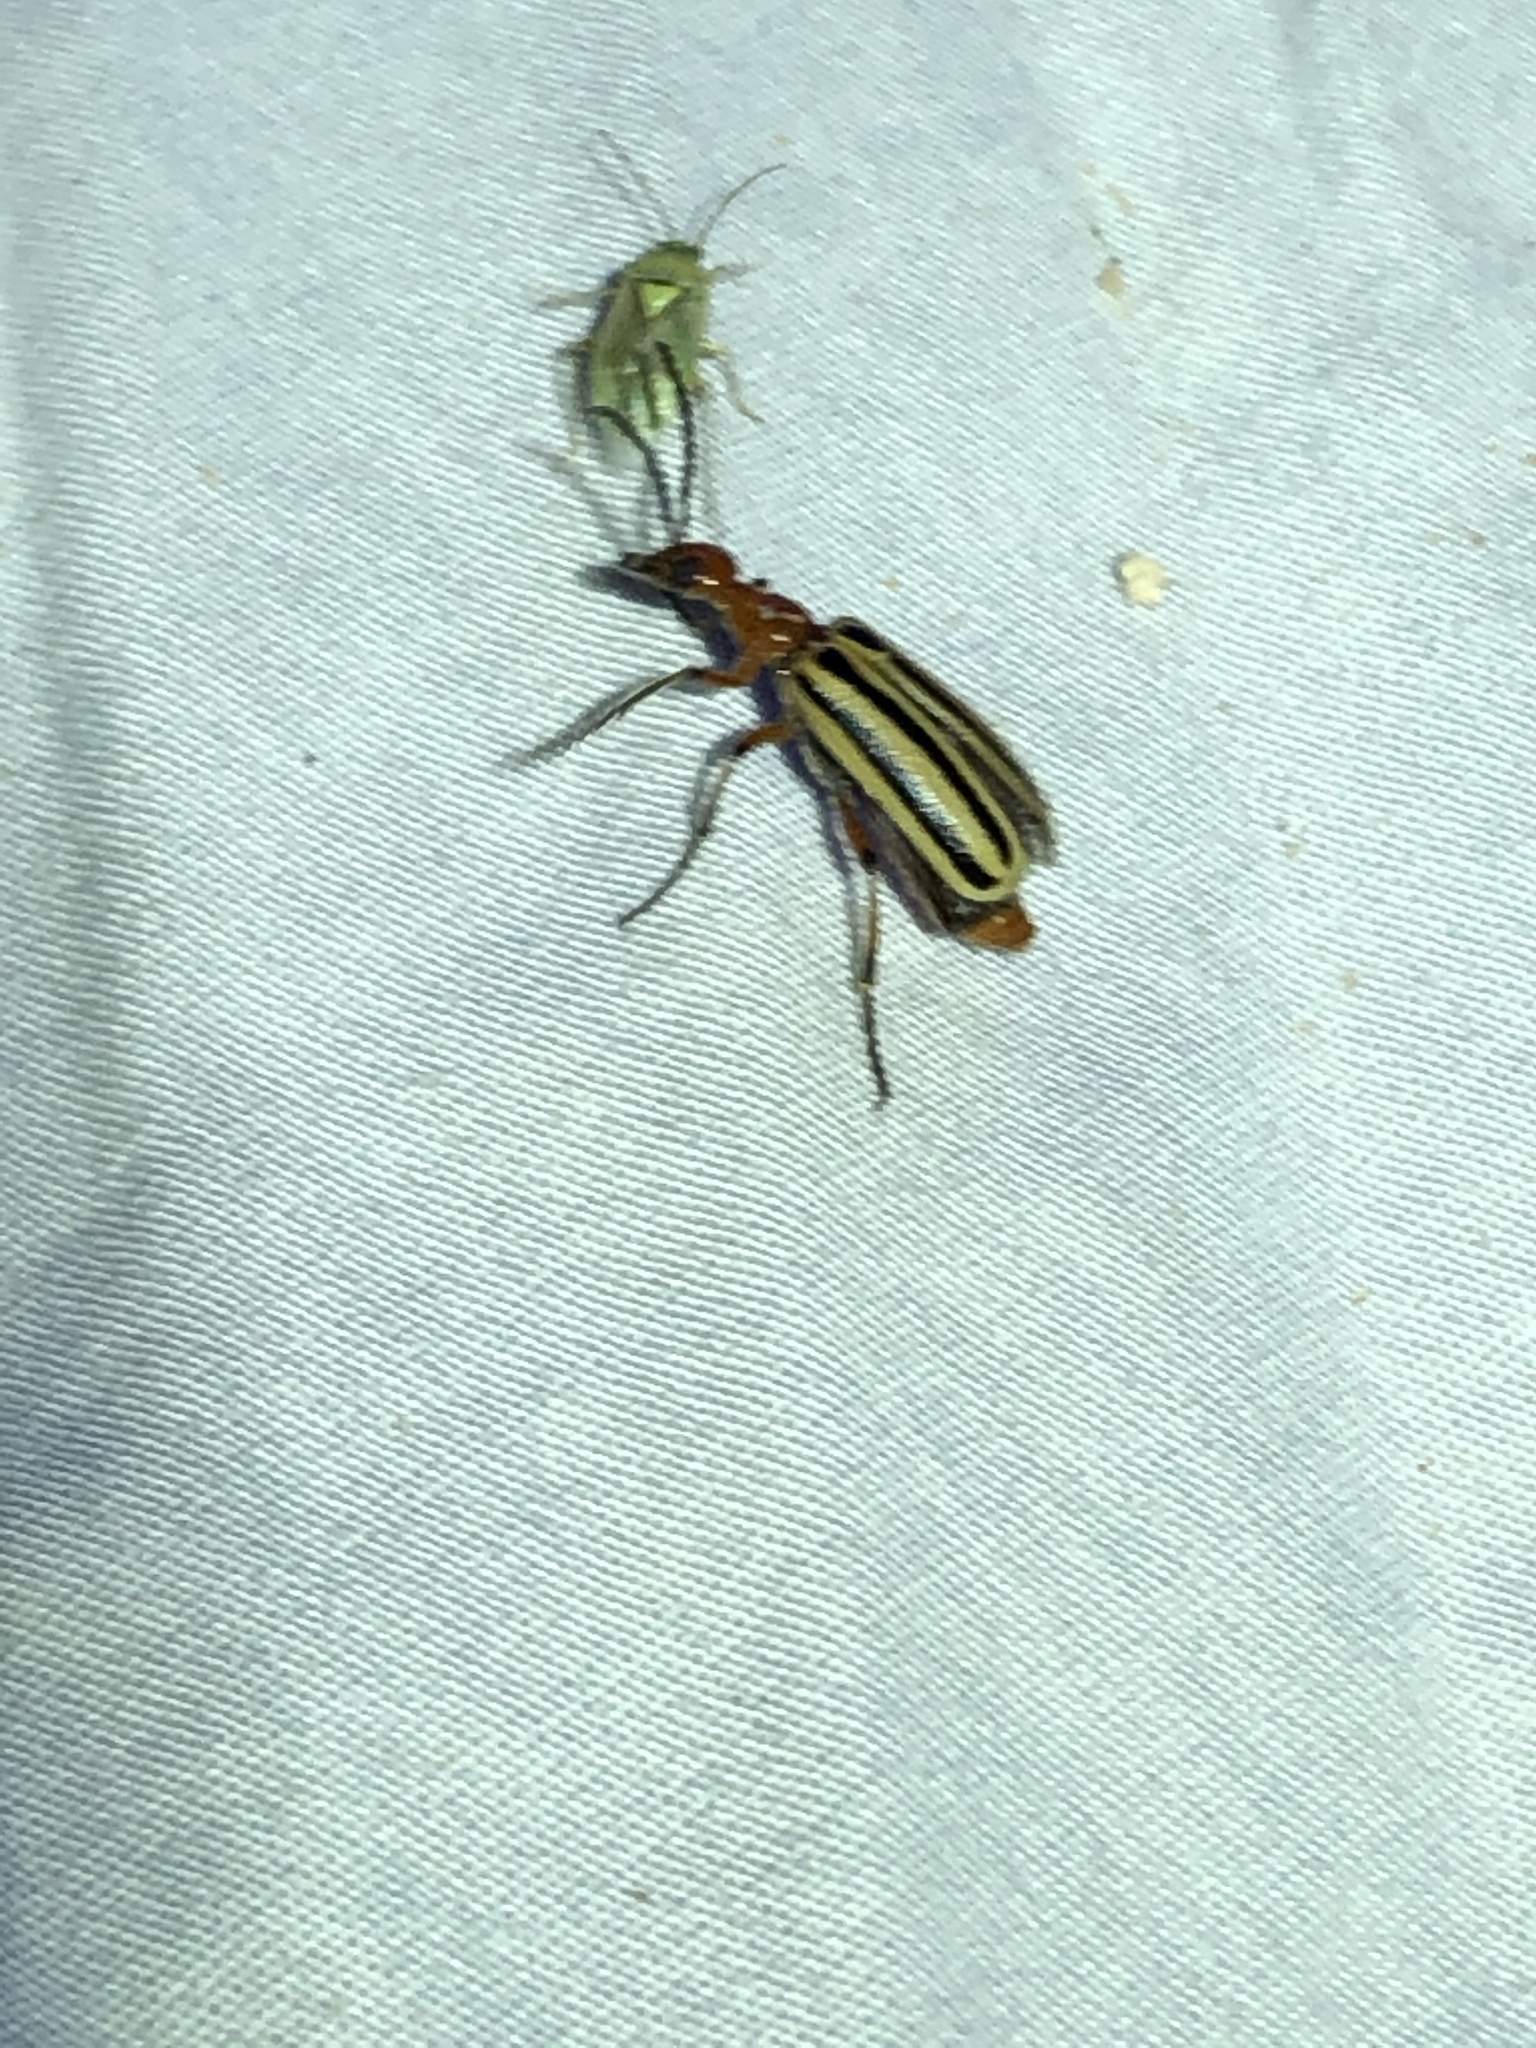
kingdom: Animalia
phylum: Arthropoda
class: Insecta
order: Coleoptera
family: Meloidae
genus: Pyrota
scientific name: Pyrota bilineata
